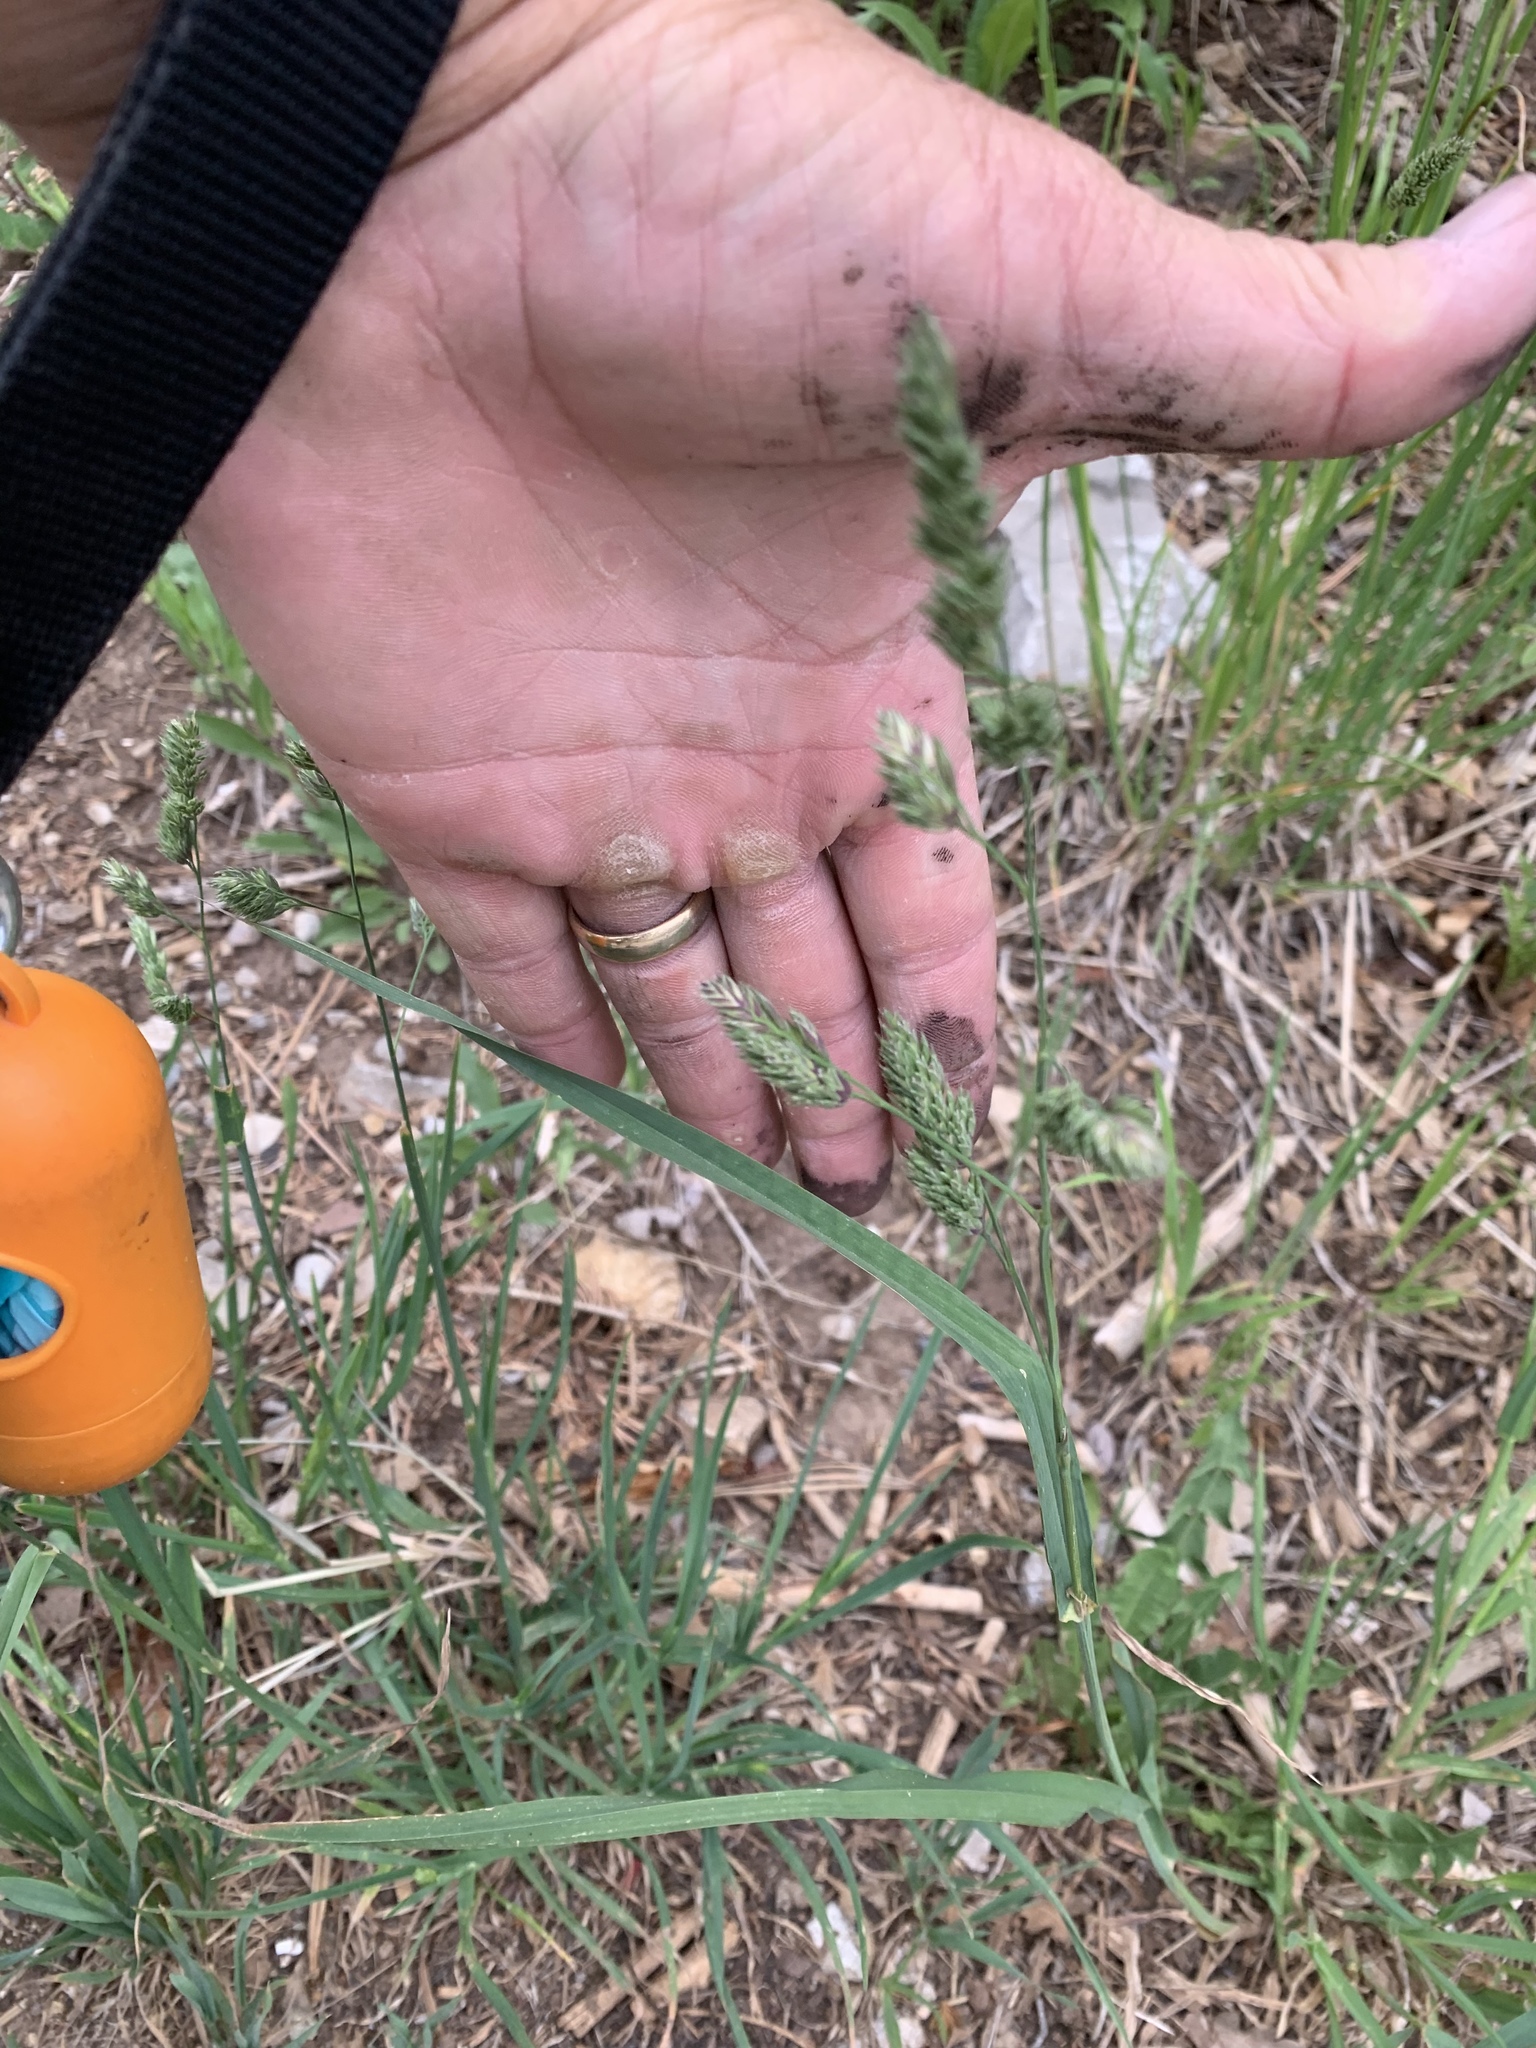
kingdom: Plantae
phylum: Tracheophyta
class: Liliopsida
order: Poales
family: Poaceae
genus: Dactylis
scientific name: Dactylis glomerata
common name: Orchardgrass
